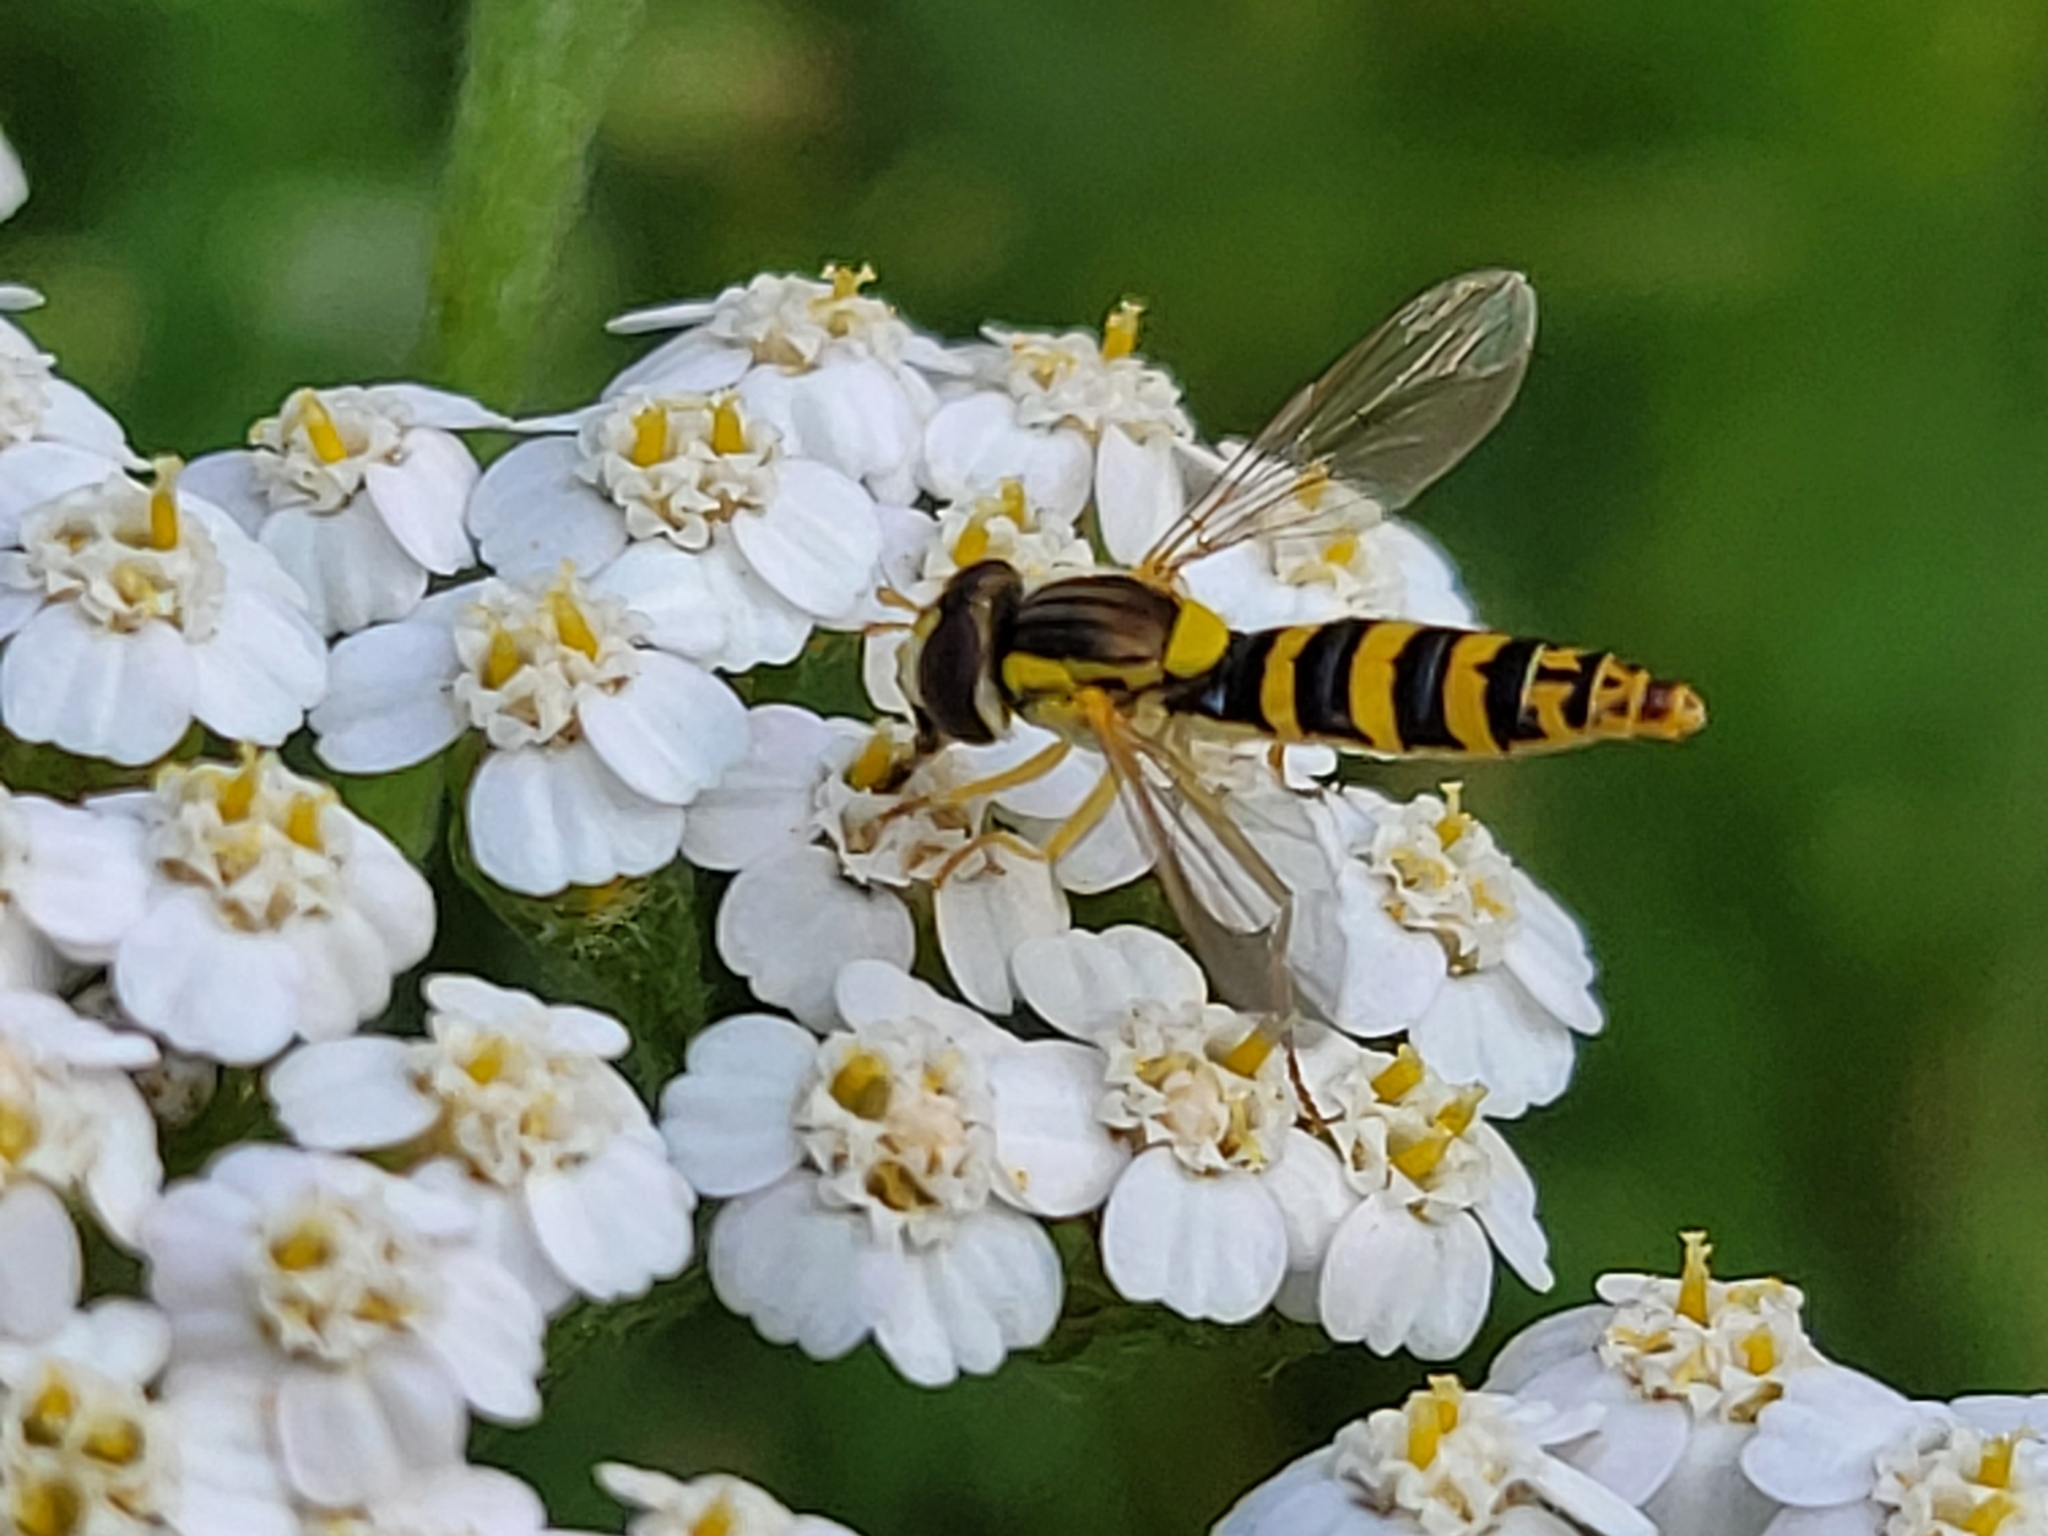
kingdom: Animalia
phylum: Arthropoda
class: Insecta
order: Diptera
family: Syrphidae
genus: Sphaerophoria
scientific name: Sphaerophoria
